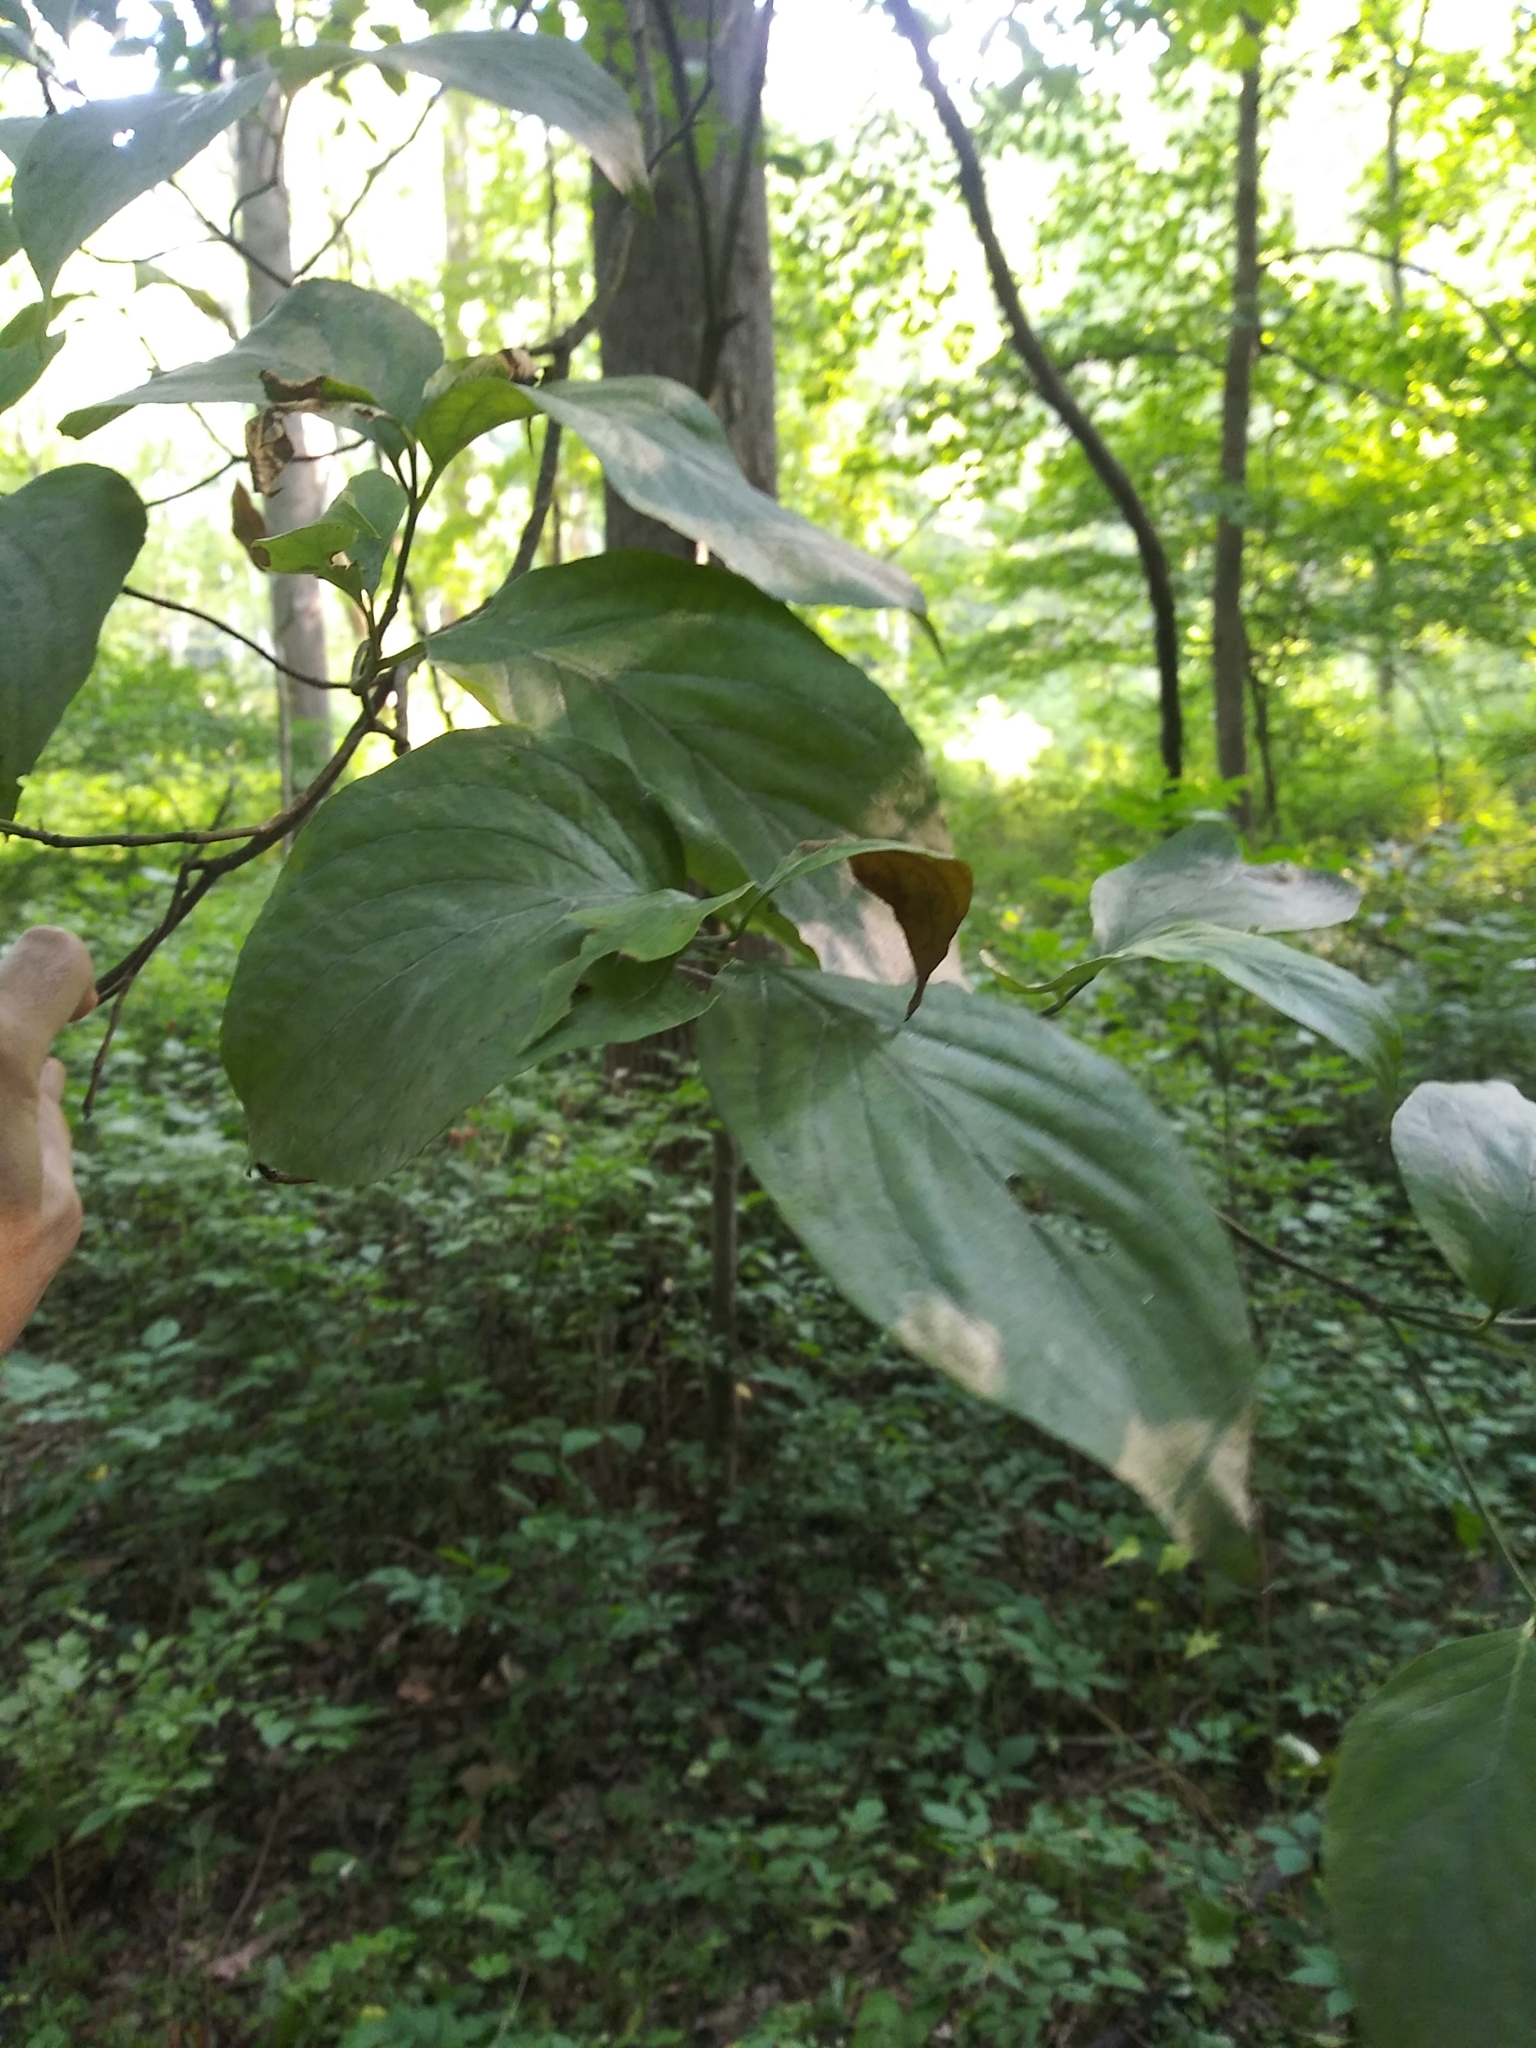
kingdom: Plantae
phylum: Tracheophyta
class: Magnoliopsida
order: Cornales
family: Cornaceae
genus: Cornus
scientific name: Cornus florida
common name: Flowering dogwood
